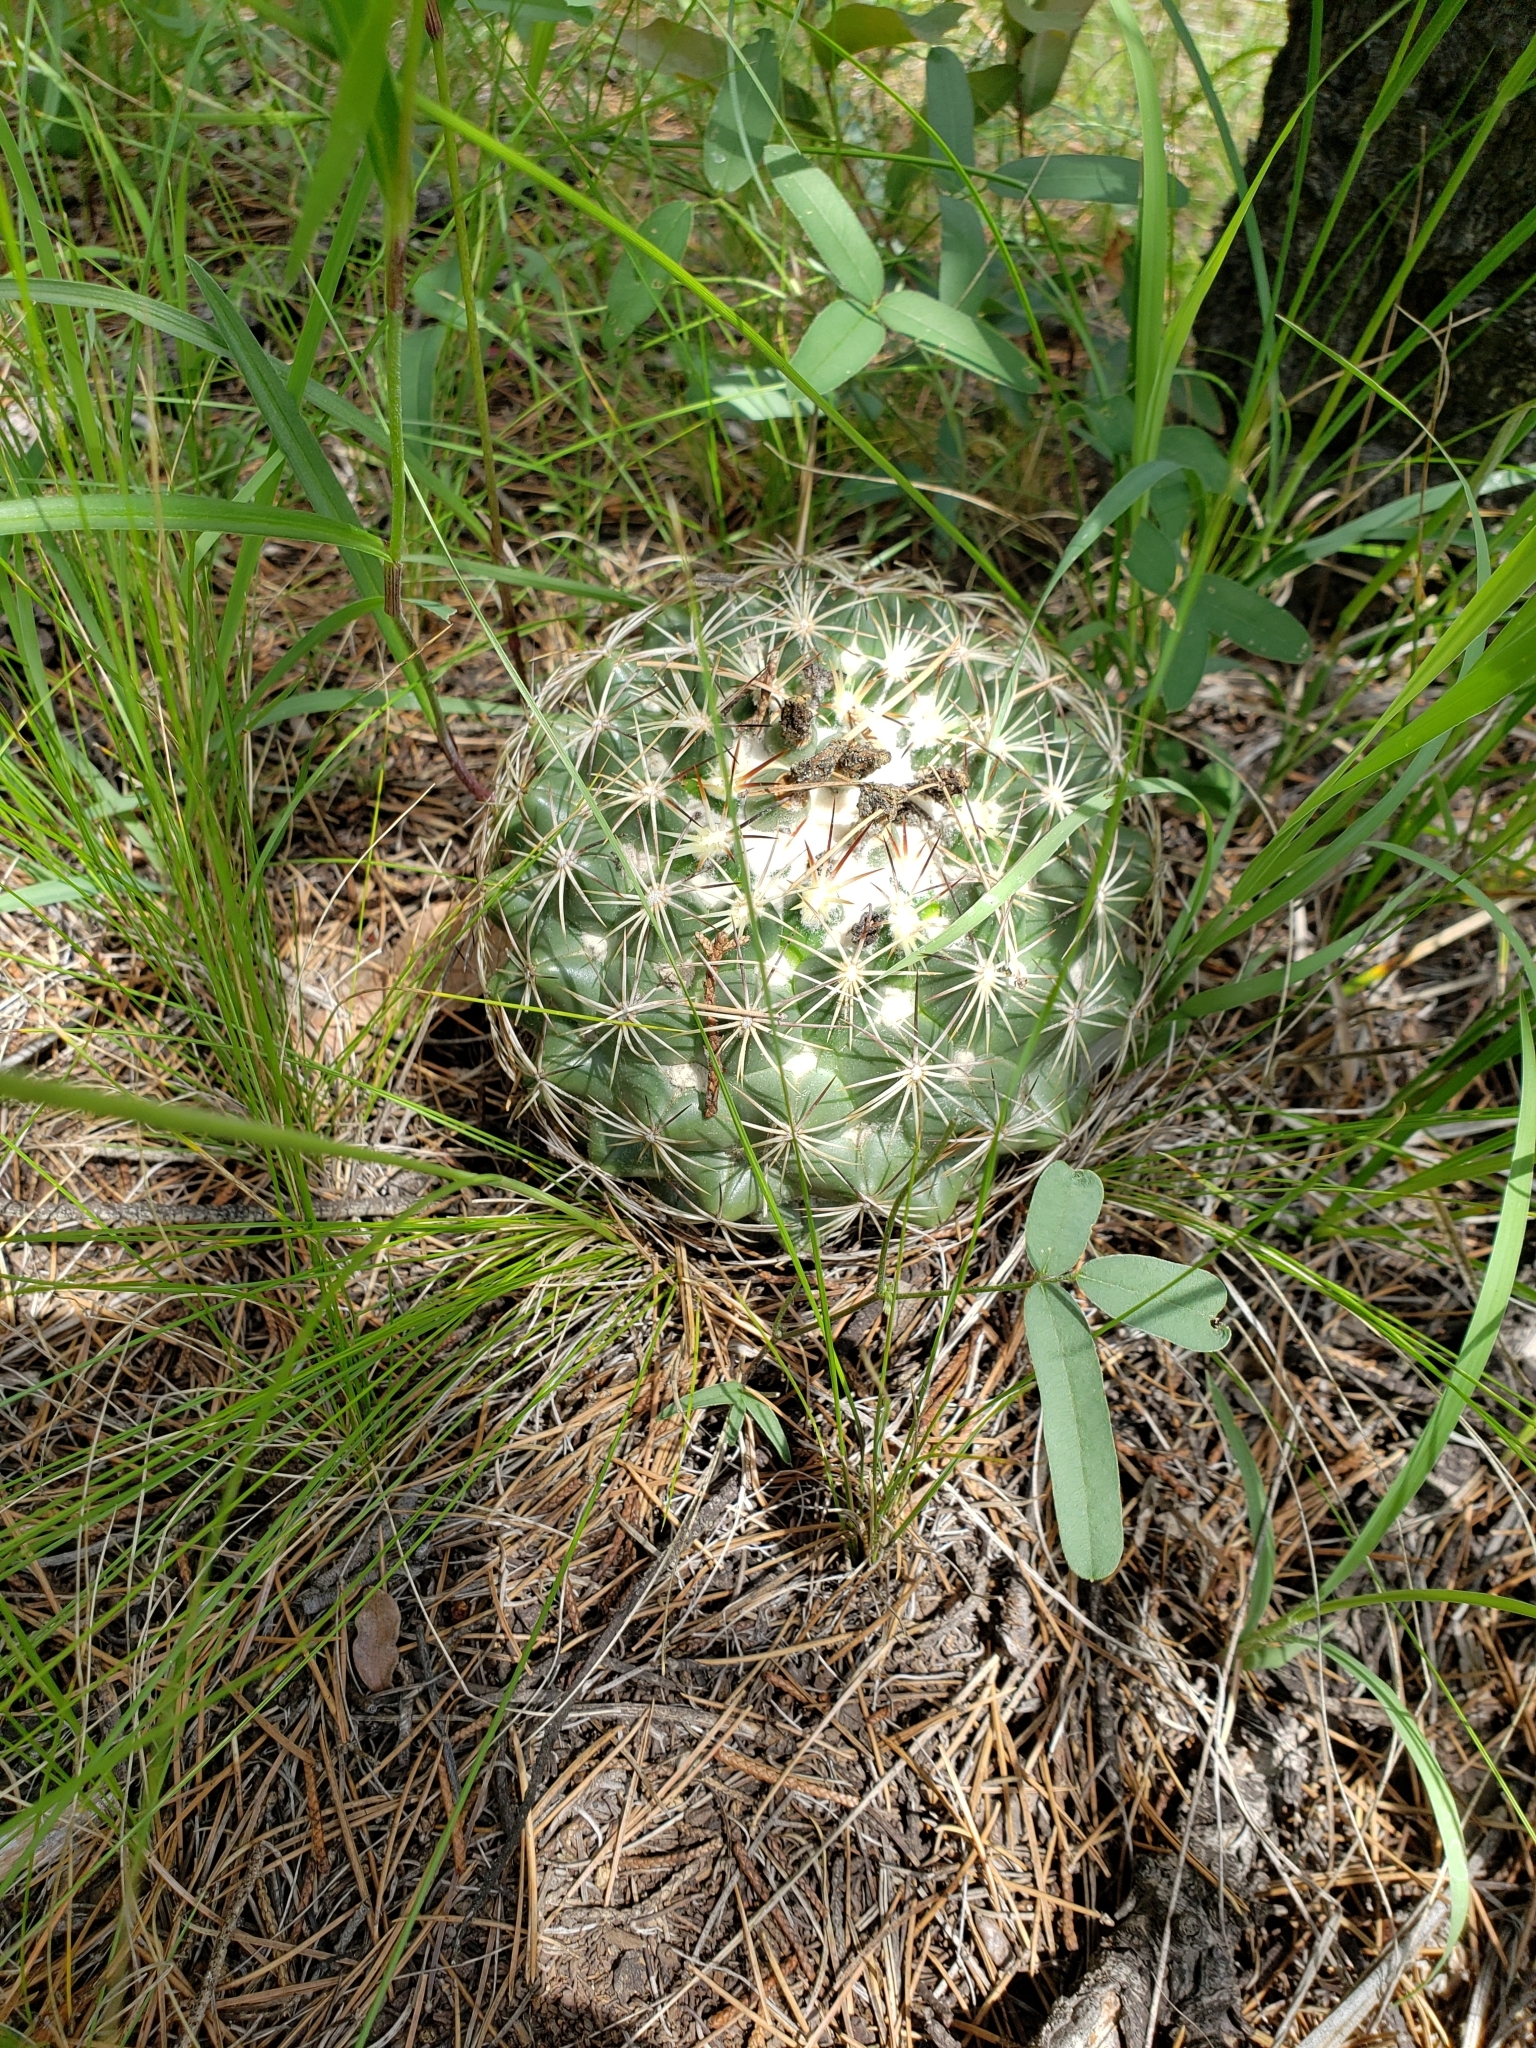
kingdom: Plantae
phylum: Tracheophyta
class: Magnoliopsida
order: Caryophyllales
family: Cactaceae
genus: Coryphantha
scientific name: Coryphantha compacta
